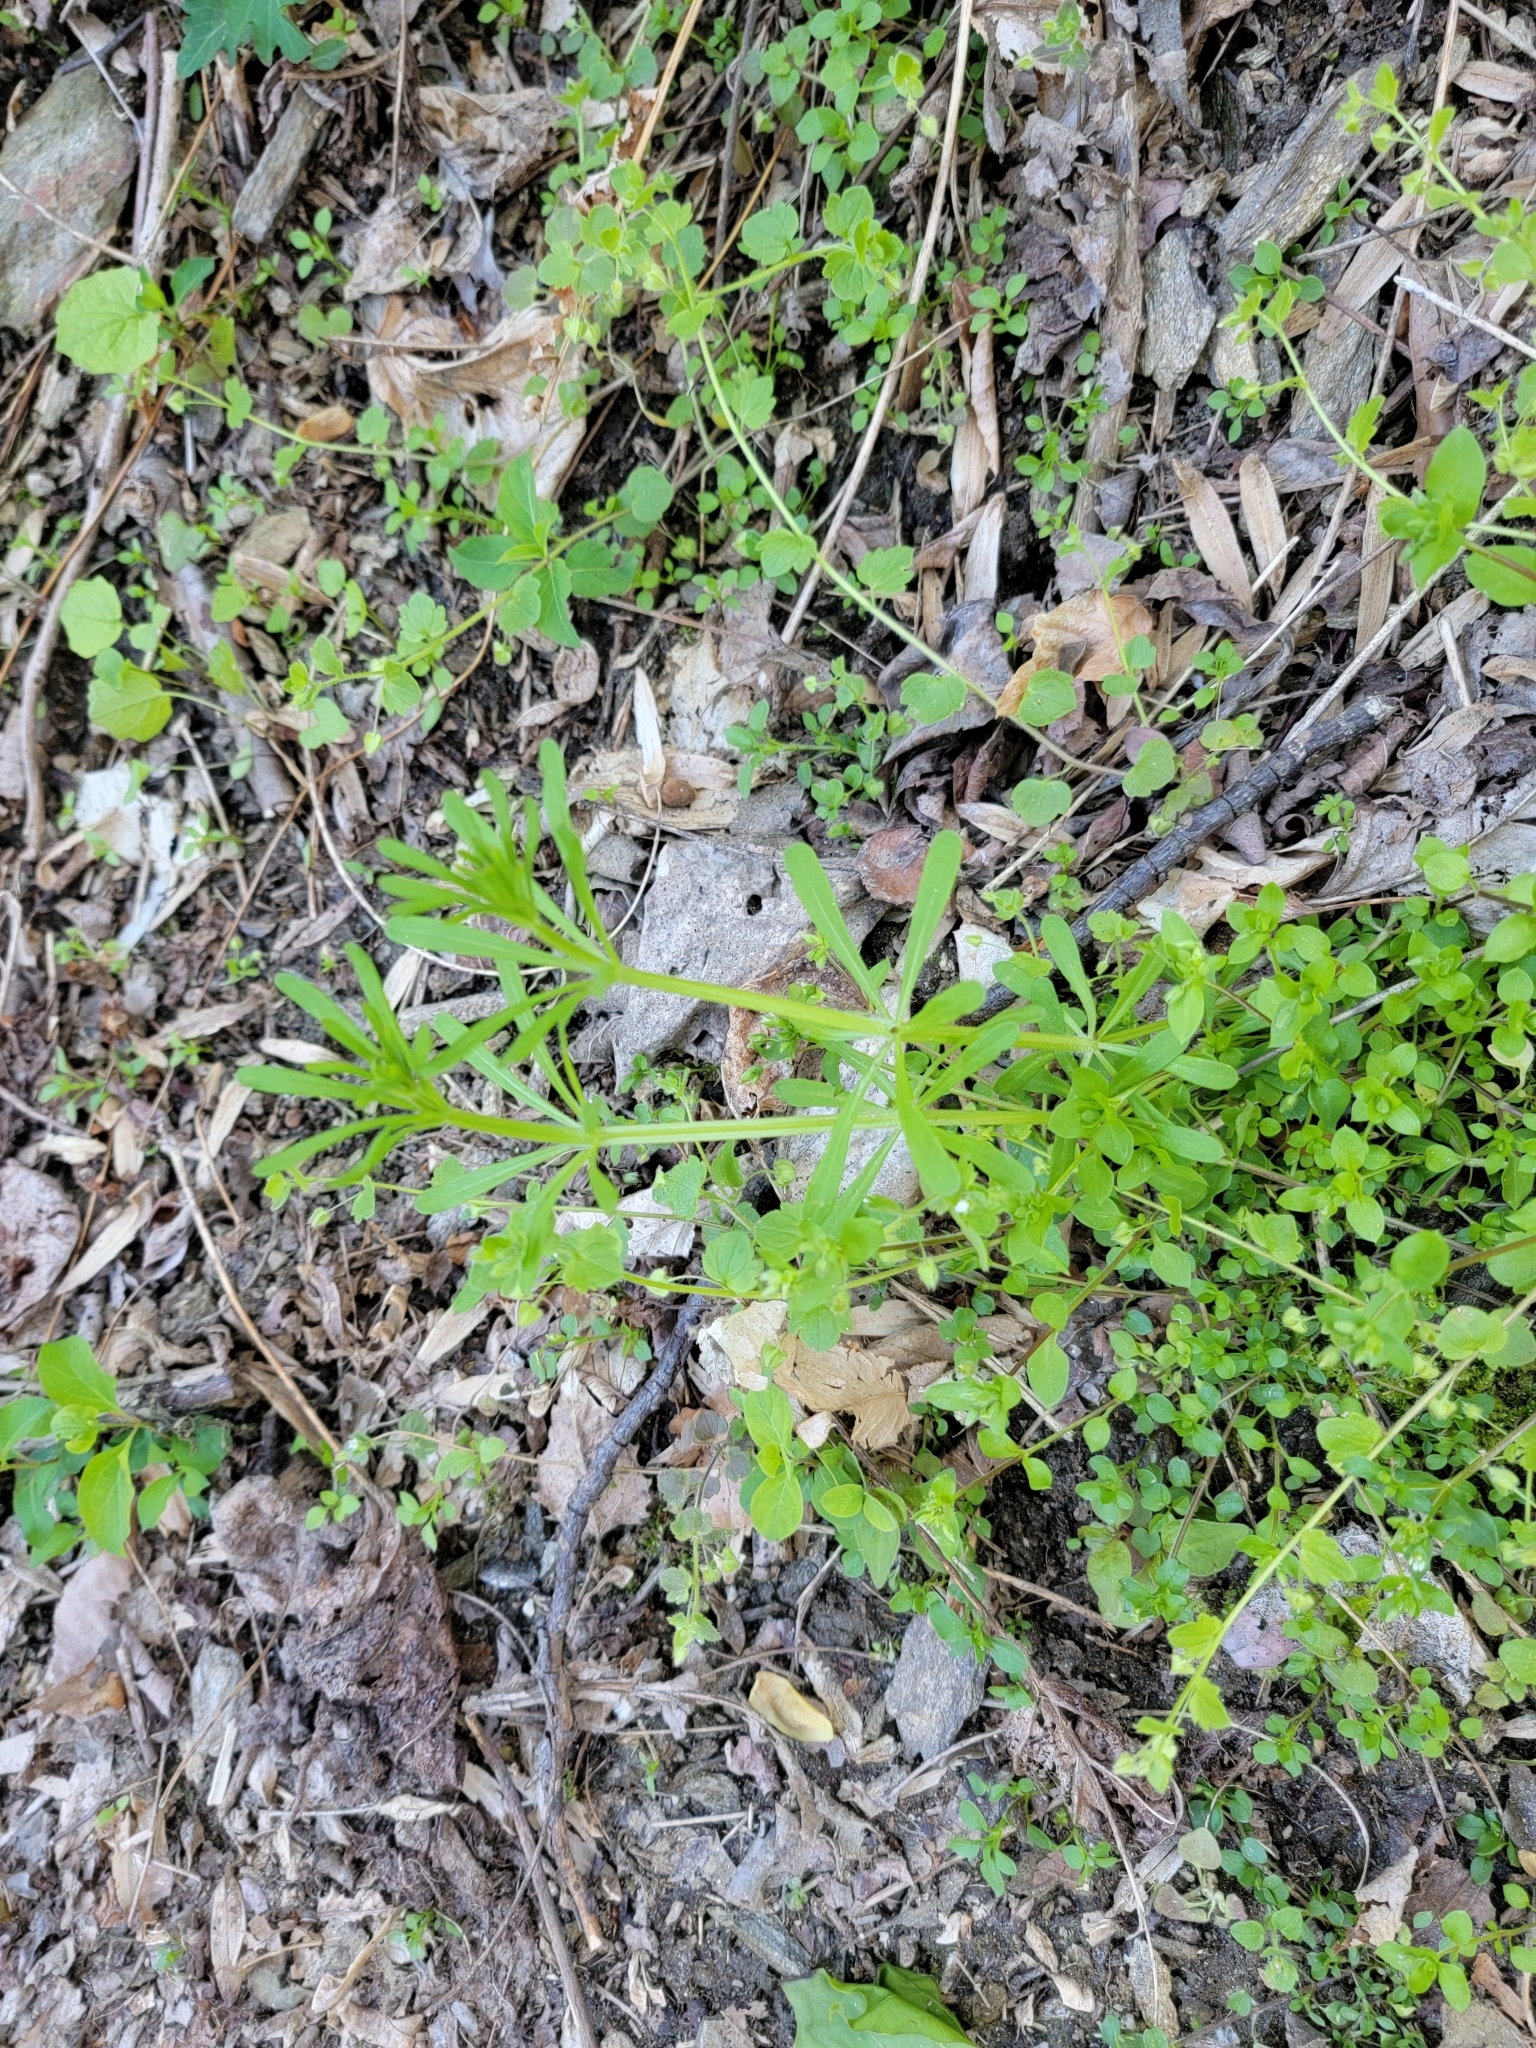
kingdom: Plantae
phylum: Tracheophyta
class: Magnoliopsida
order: Gentianales
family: Rubiaceae
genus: Galium
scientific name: Galium aparine
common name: Cleavers
